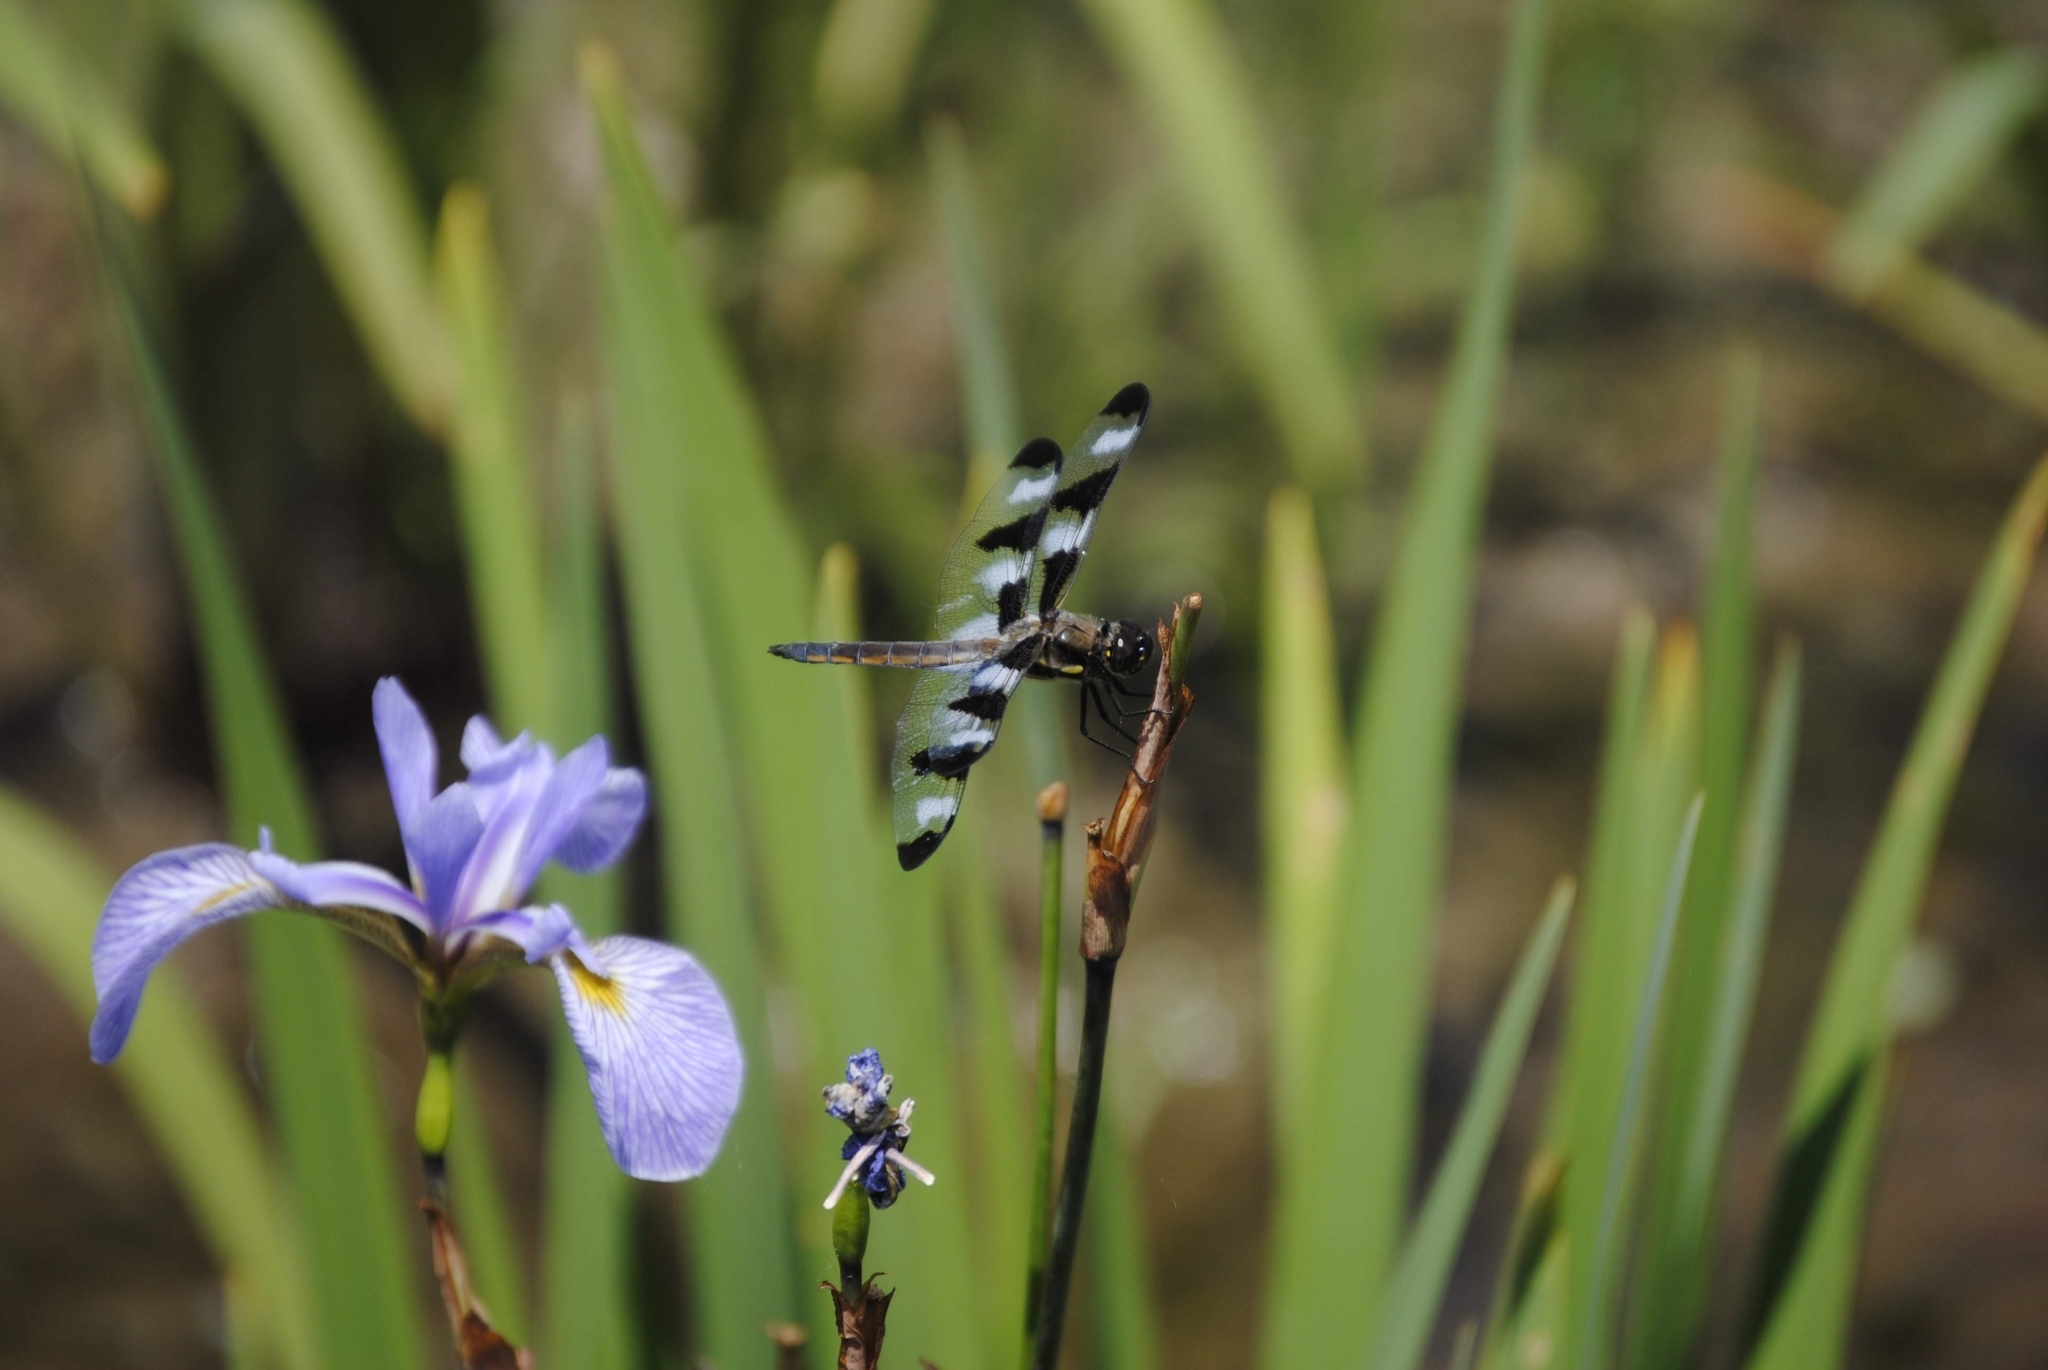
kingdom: Animalia
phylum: Arthropoda
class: Insecta
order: Odonata
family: Libellulidae
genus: Libellula
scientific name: Libellula pulchella
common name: Twelve-spotted skimmer
